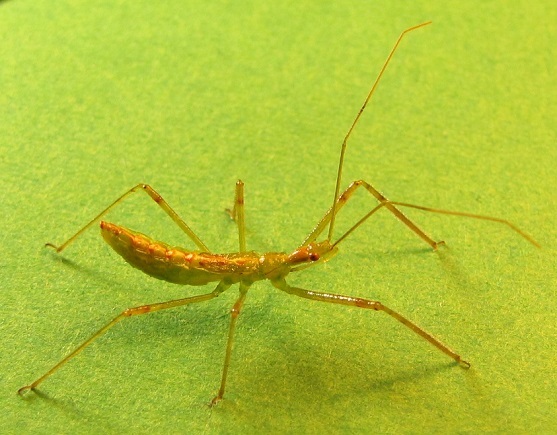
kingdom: Animalia
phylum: Arthropoda
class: Insecta
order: Hemiptera
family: Reduviidae
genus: Zelus
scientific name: Zelus luridus
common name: Pale green assassin bug
